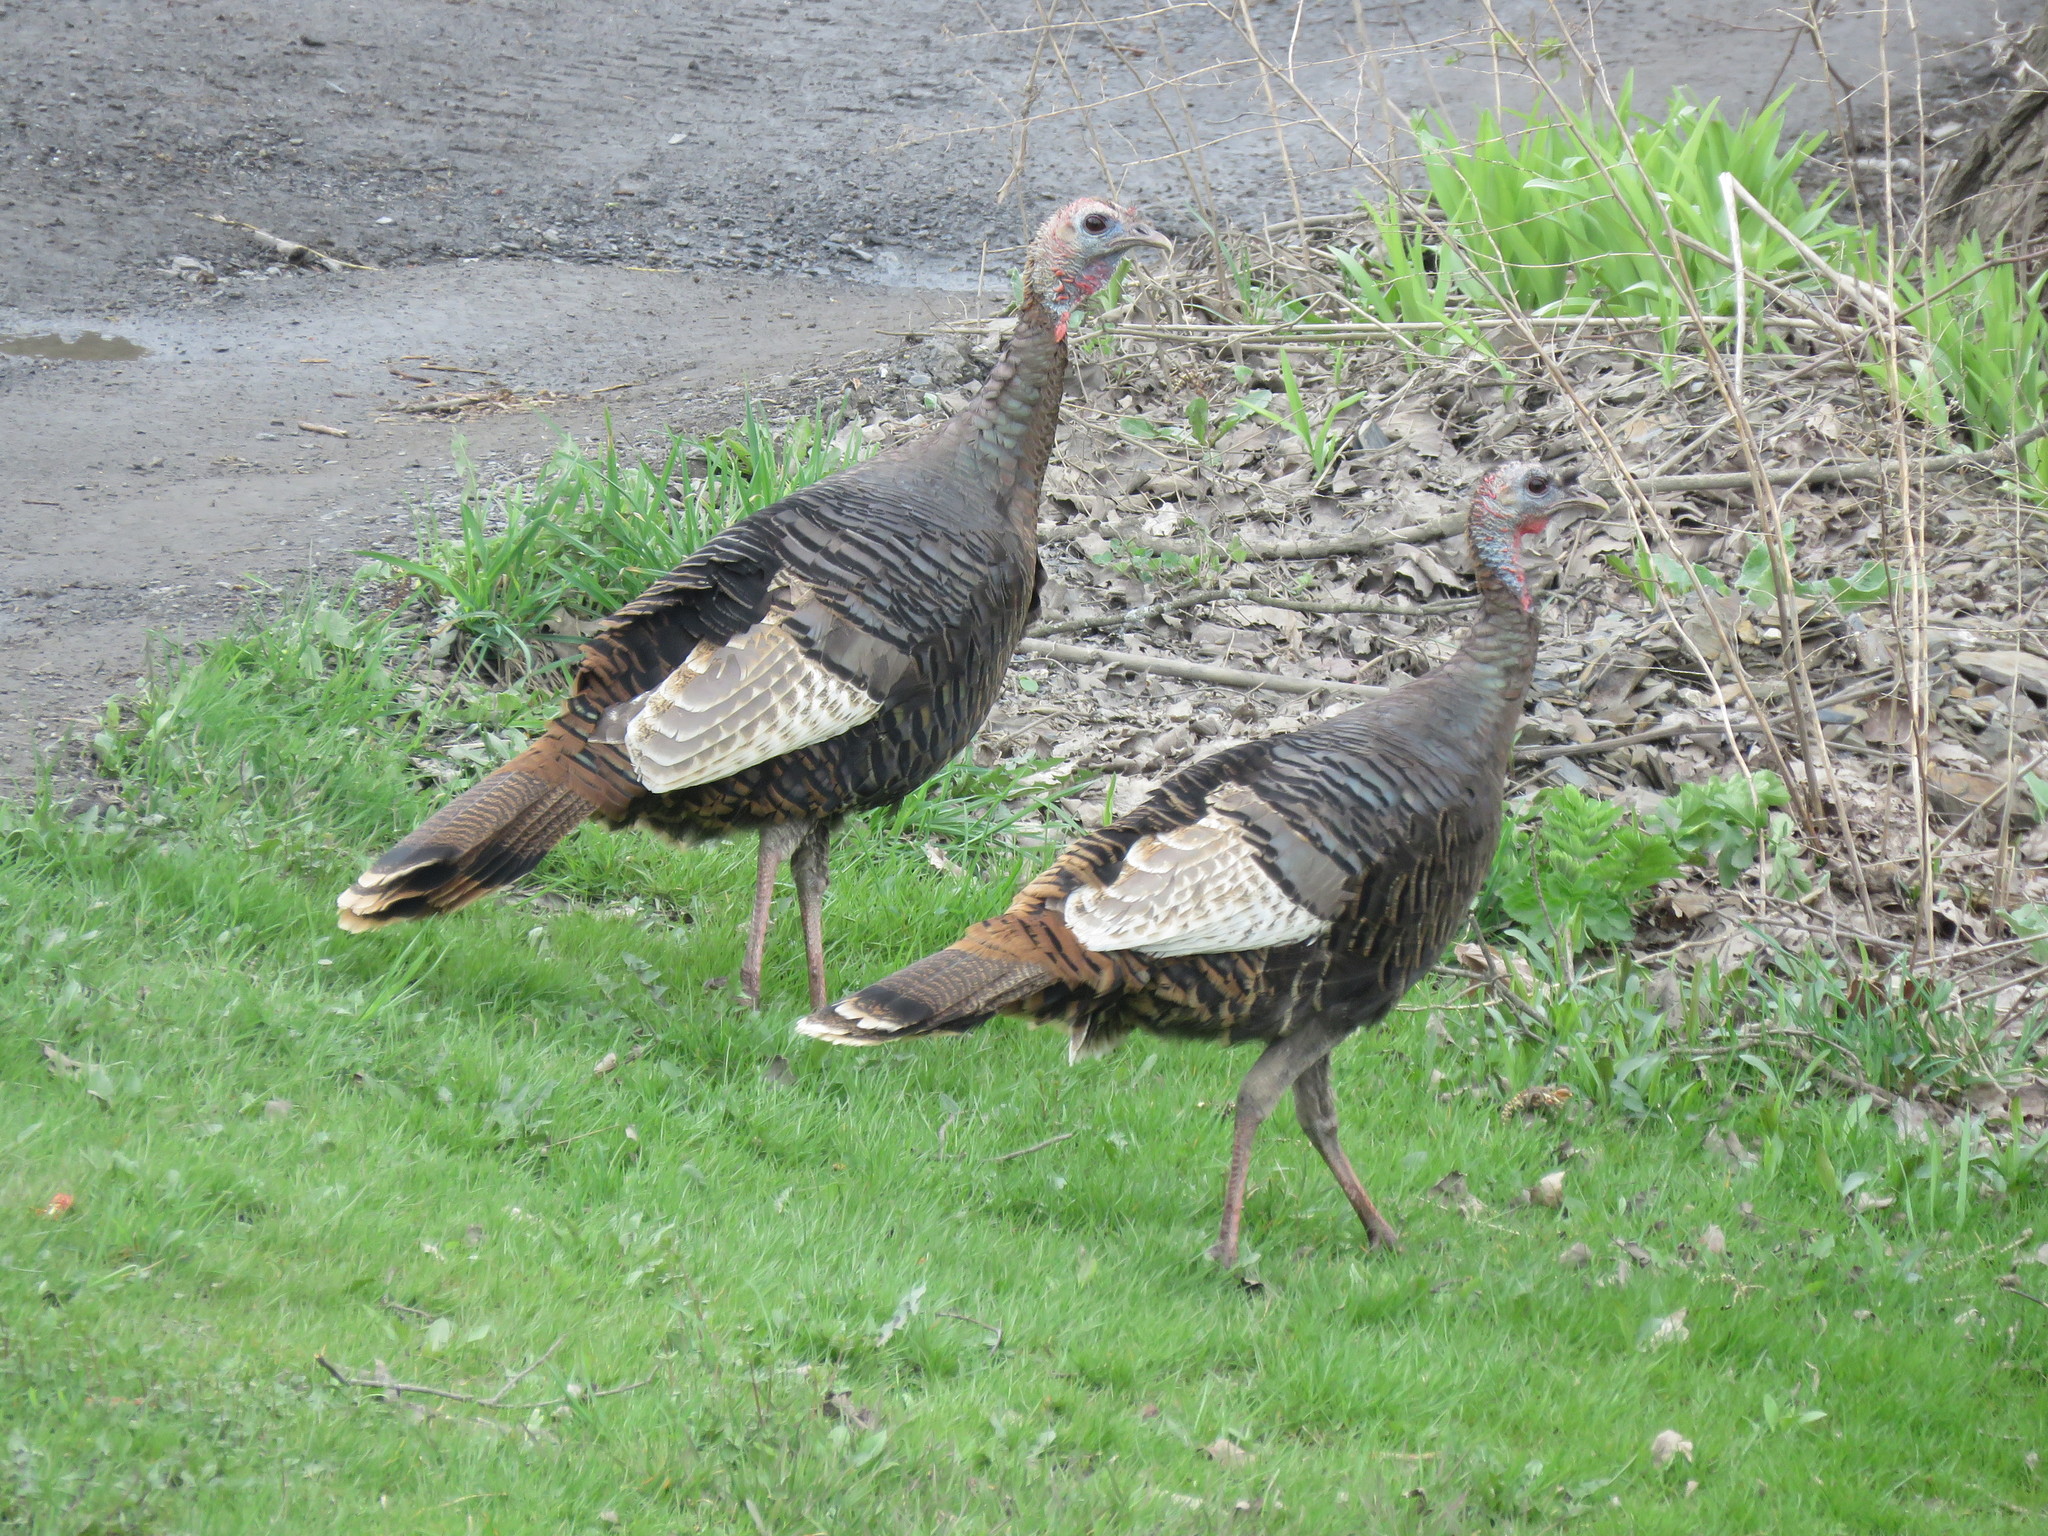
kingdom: Animalia
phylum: Chordata
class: Aves
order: Galliformes
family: Phasianidae
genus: Meleagris
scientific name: Meleagris gallopavo
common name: Wild turkey
